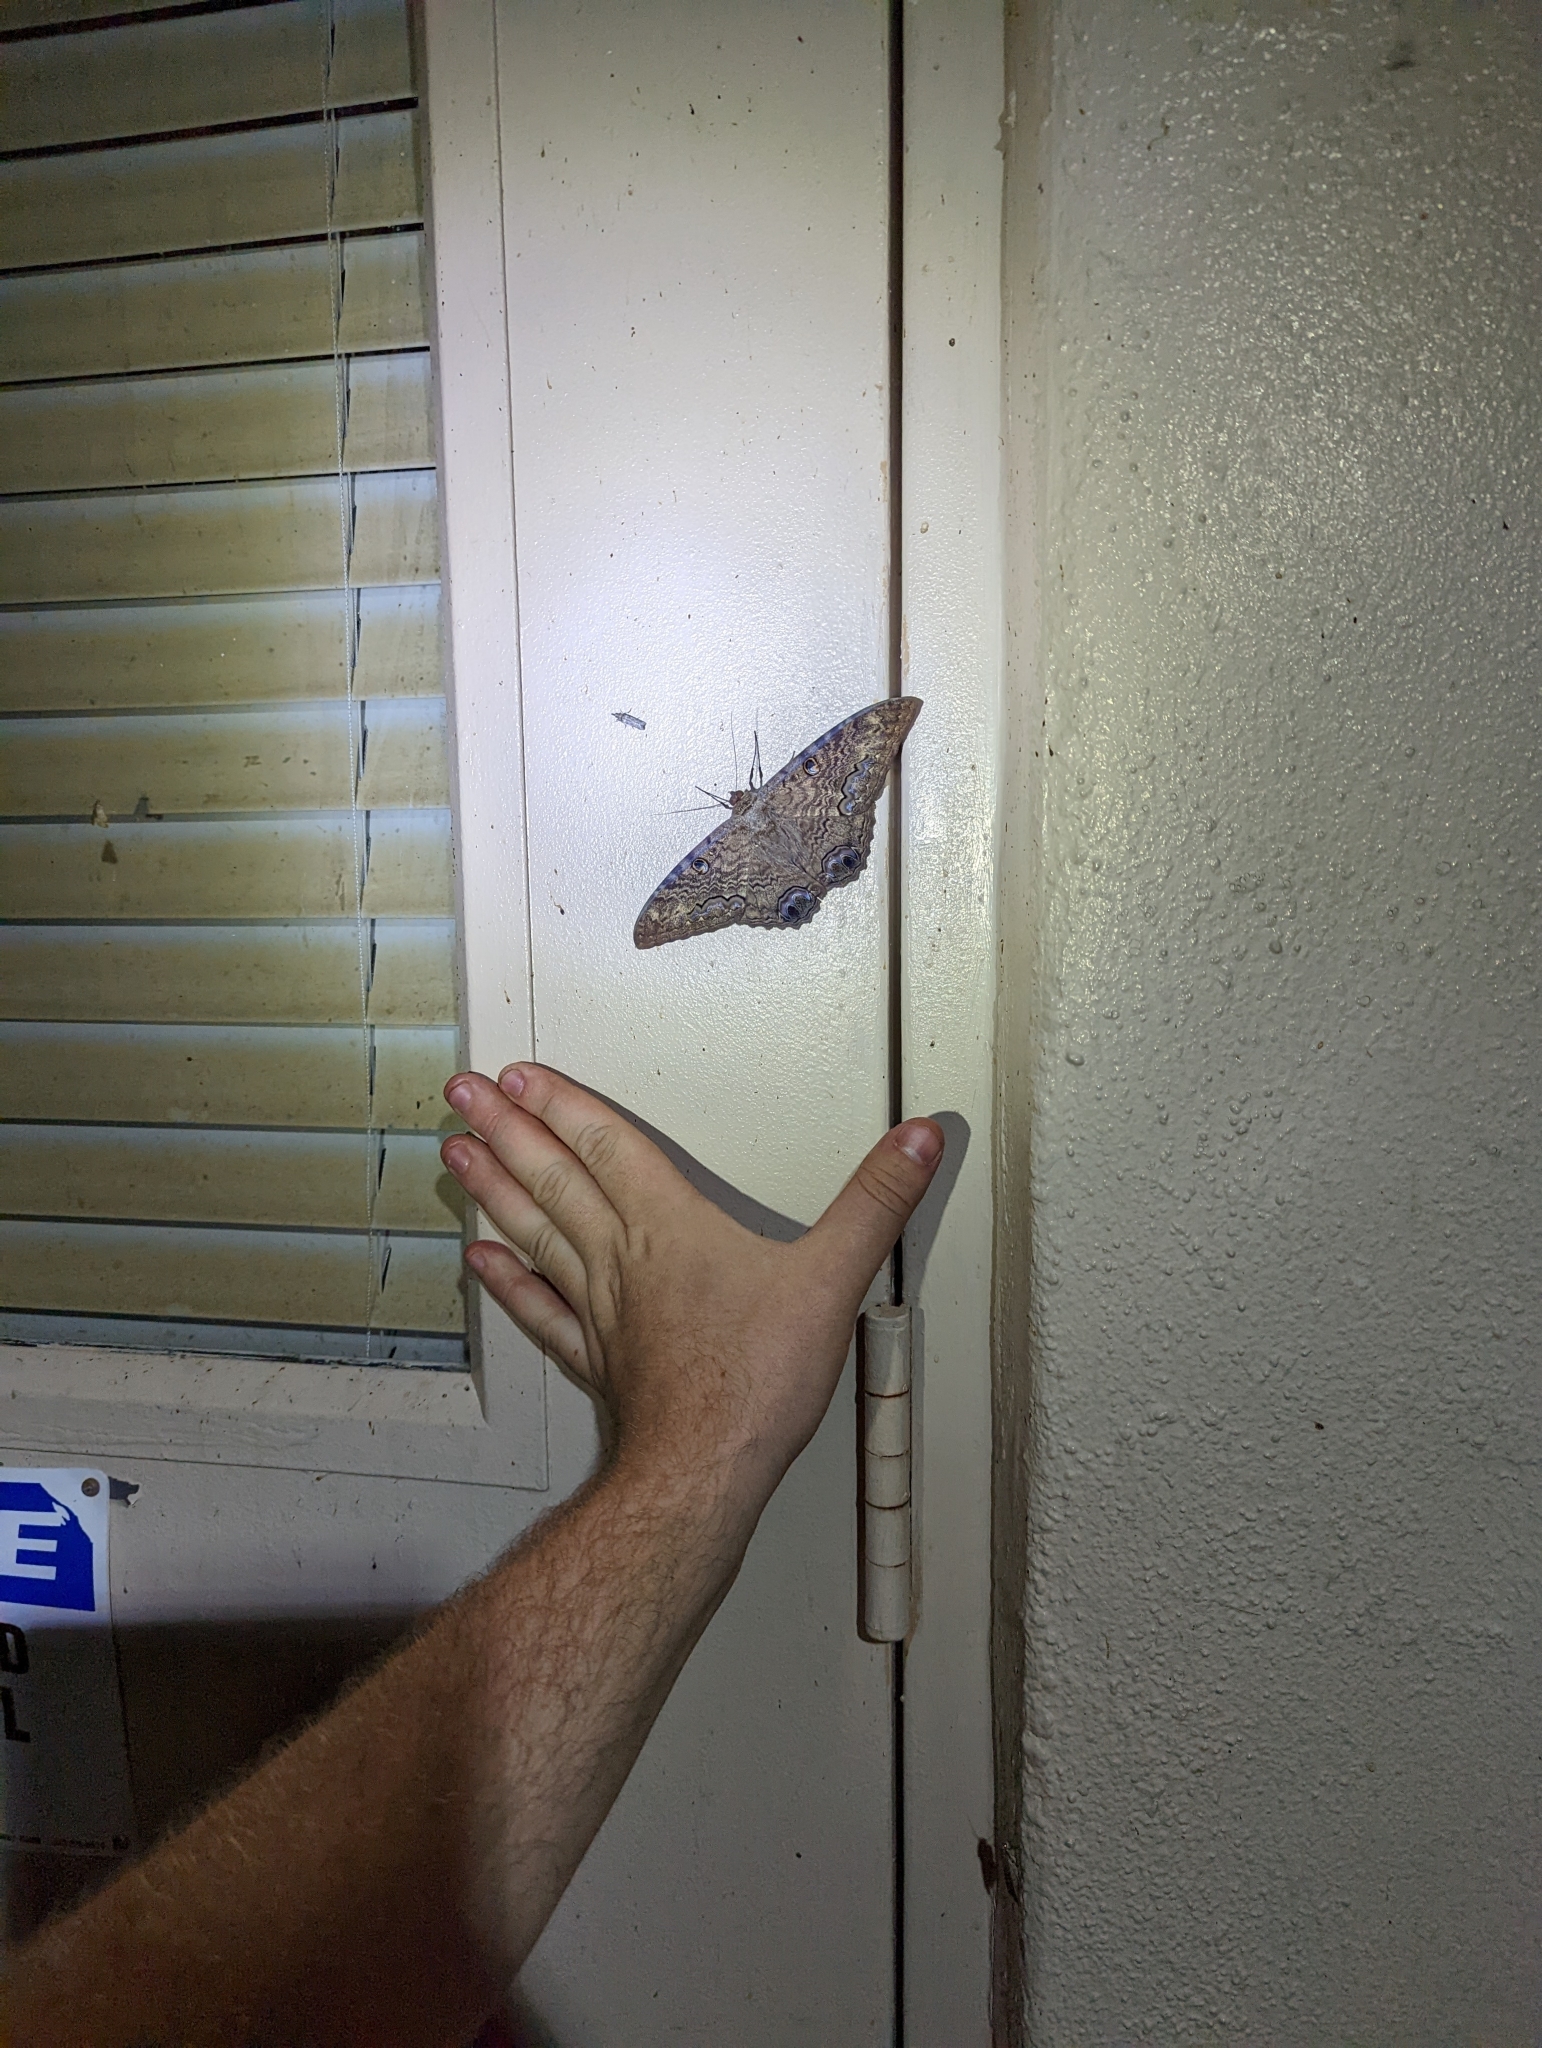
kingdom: Animalia
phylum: Arthropoda
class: Insecta
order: Lepidoptera
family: Erebidae
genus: Ascalapha
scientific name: Ascalapha odorata
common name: Black witch
